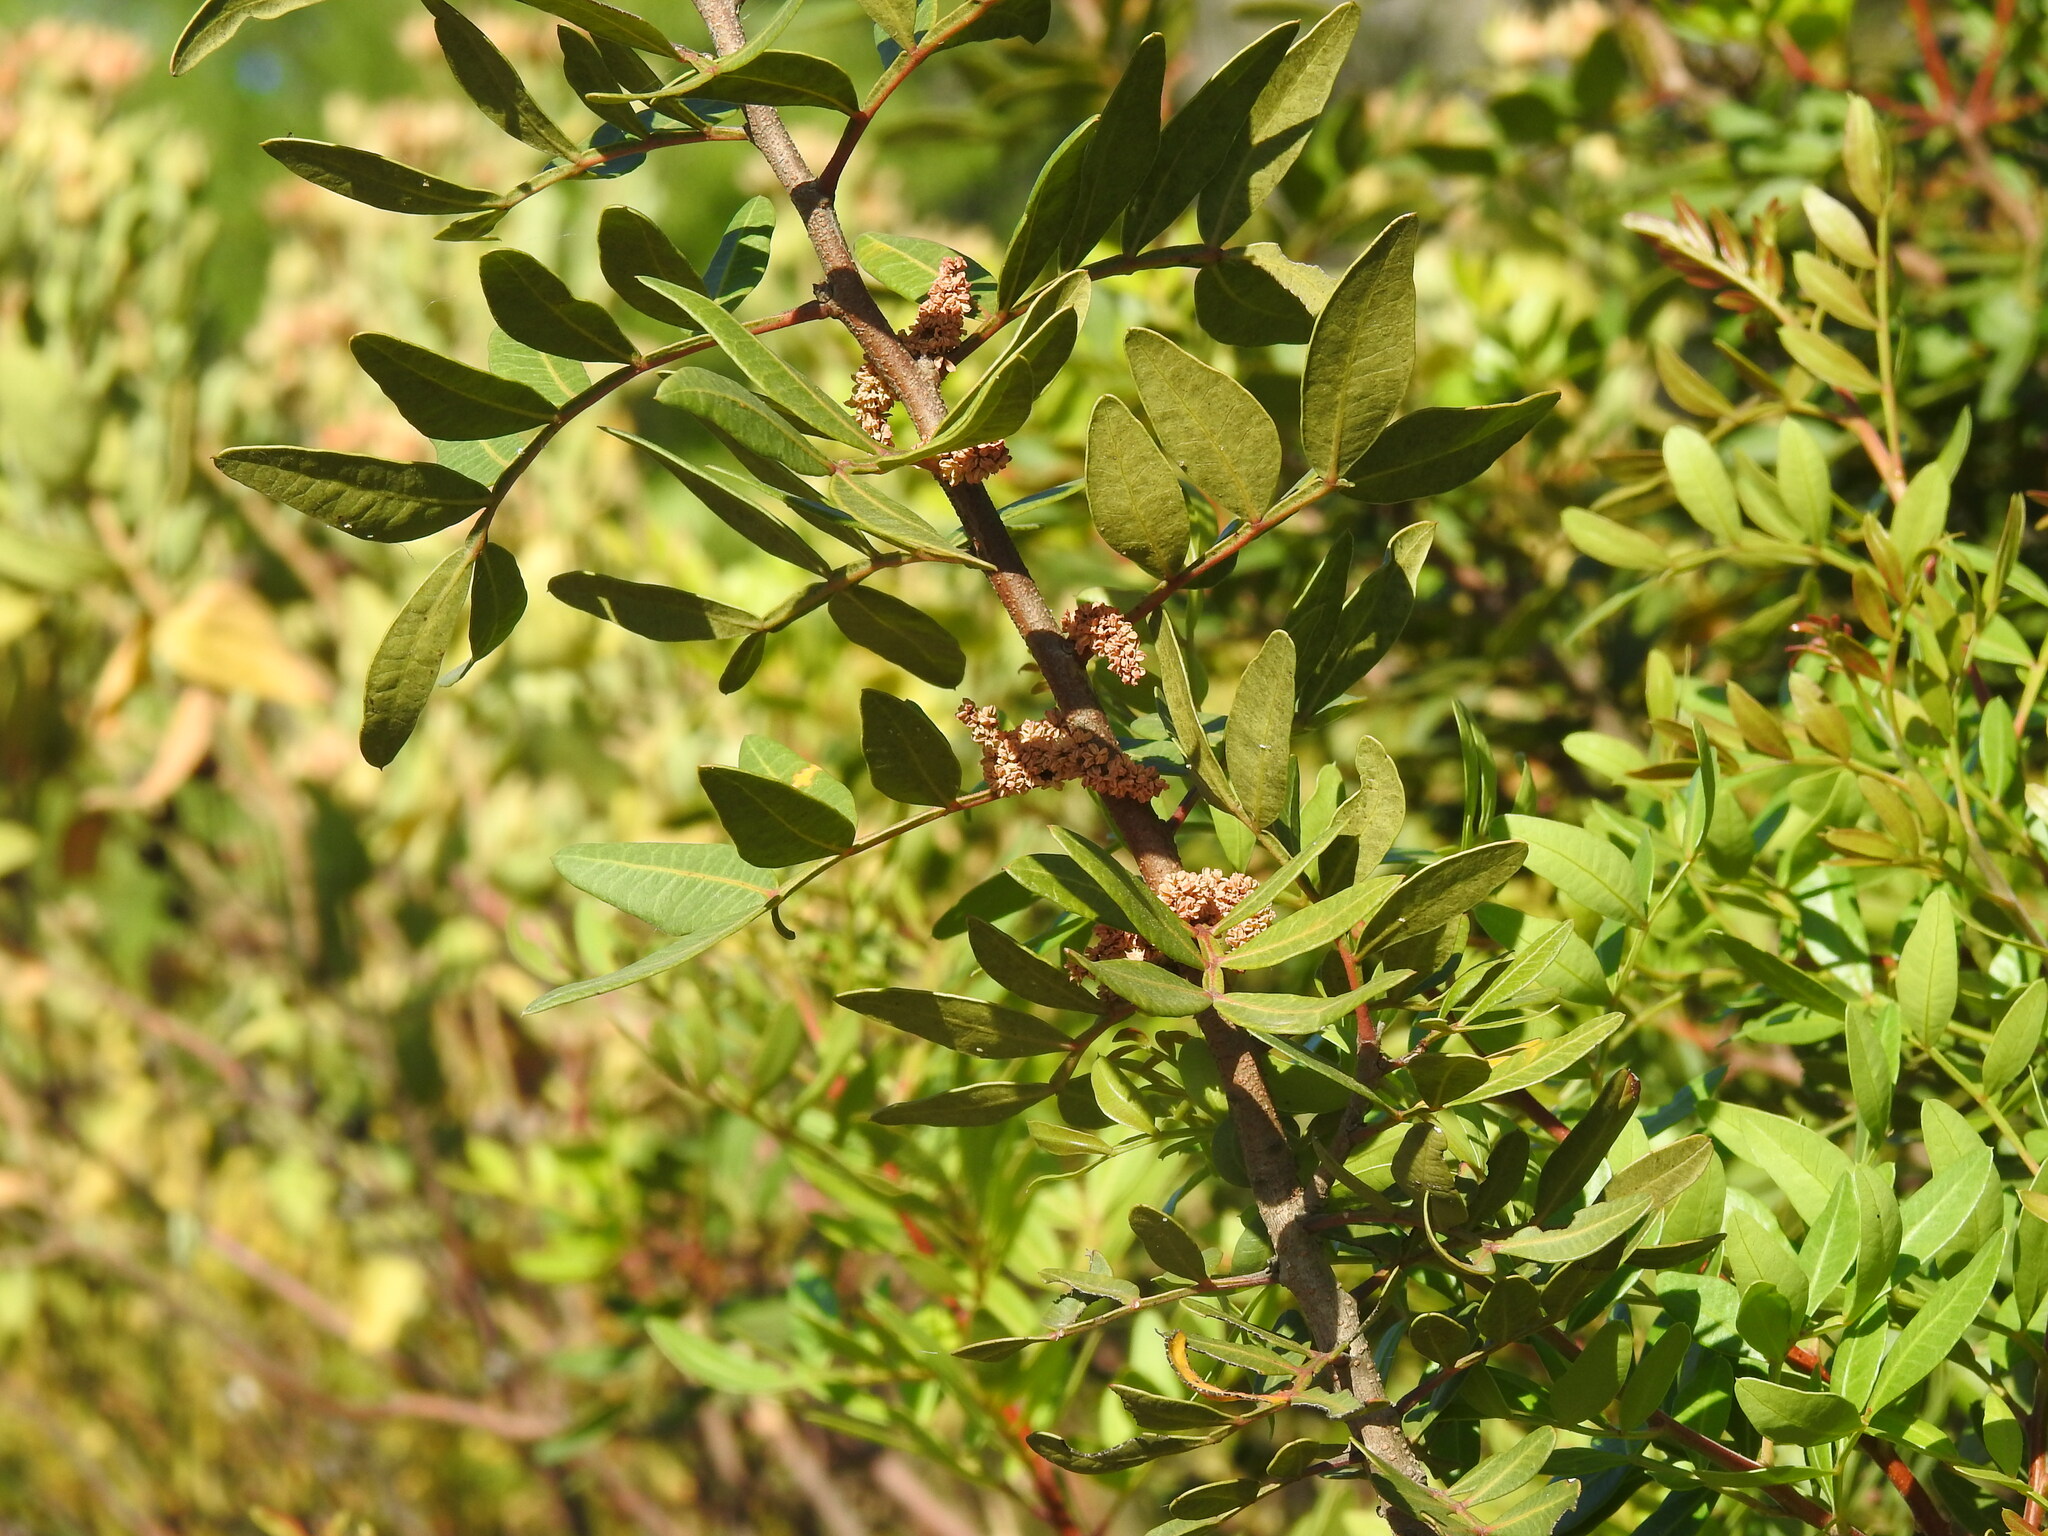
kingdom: Plantae
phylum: Tracheophyta
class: Magnoliopsida
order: Sapindales
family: Anacardiaceae
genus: Pistacia
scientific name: Pistacia lentiscus
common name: Lentisk
